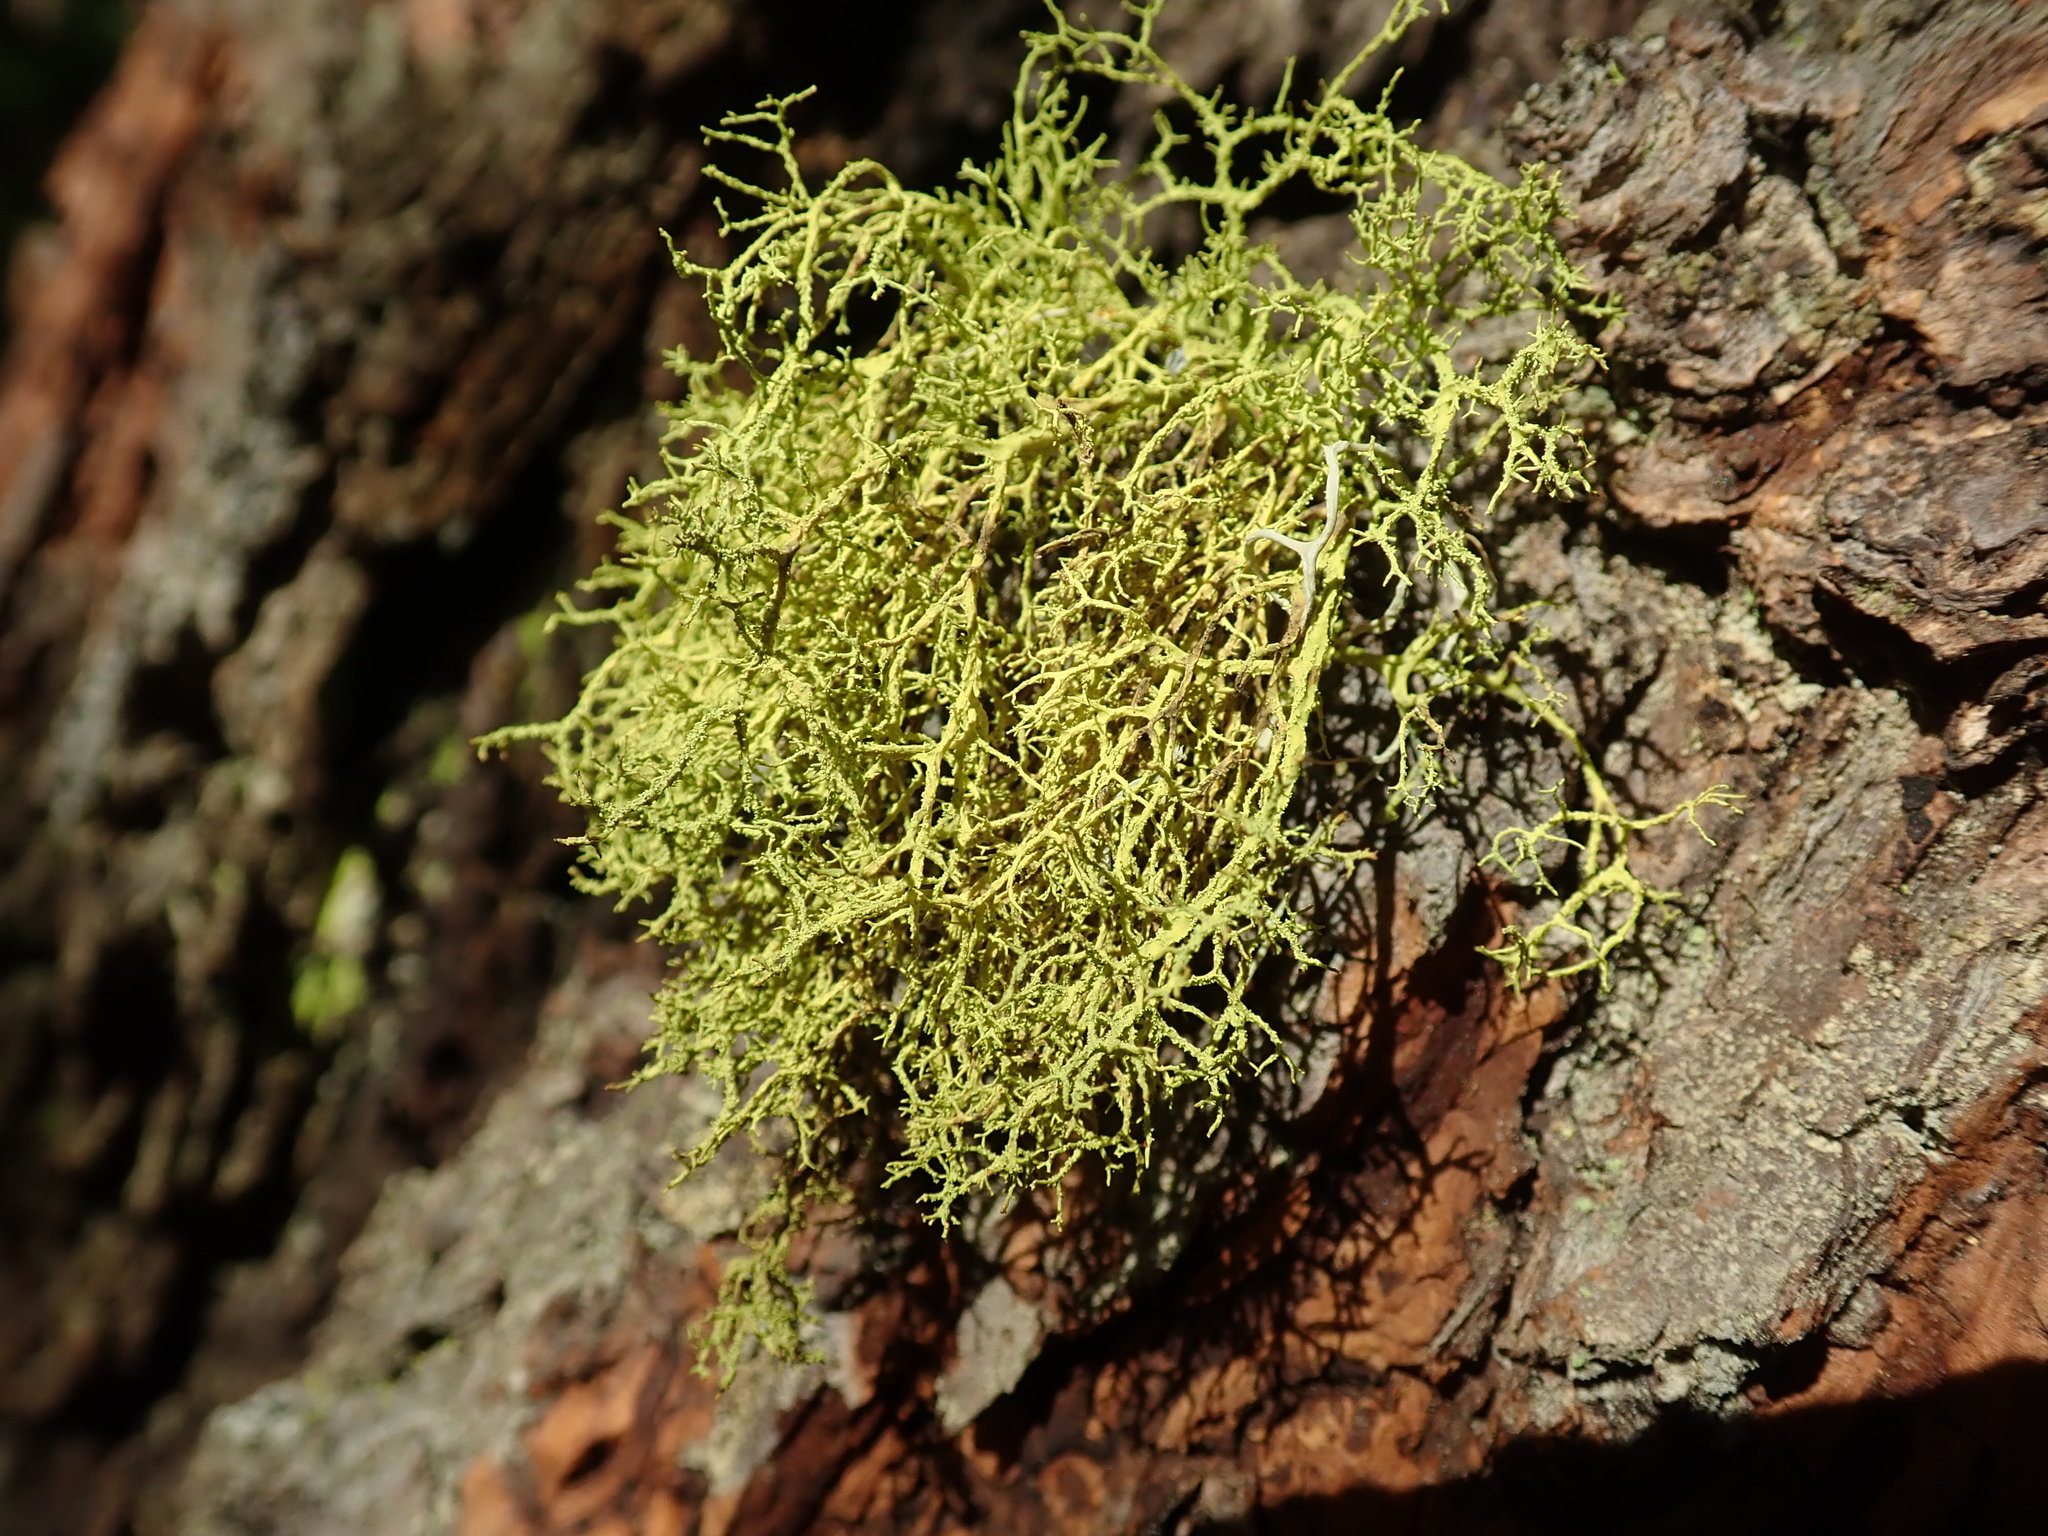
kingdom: Fungi
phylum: Ascomycota
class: Lecanoromycetes
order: Lecanorales
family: Parmeliaceae
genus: Letharia
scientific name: Letharia vulpina
